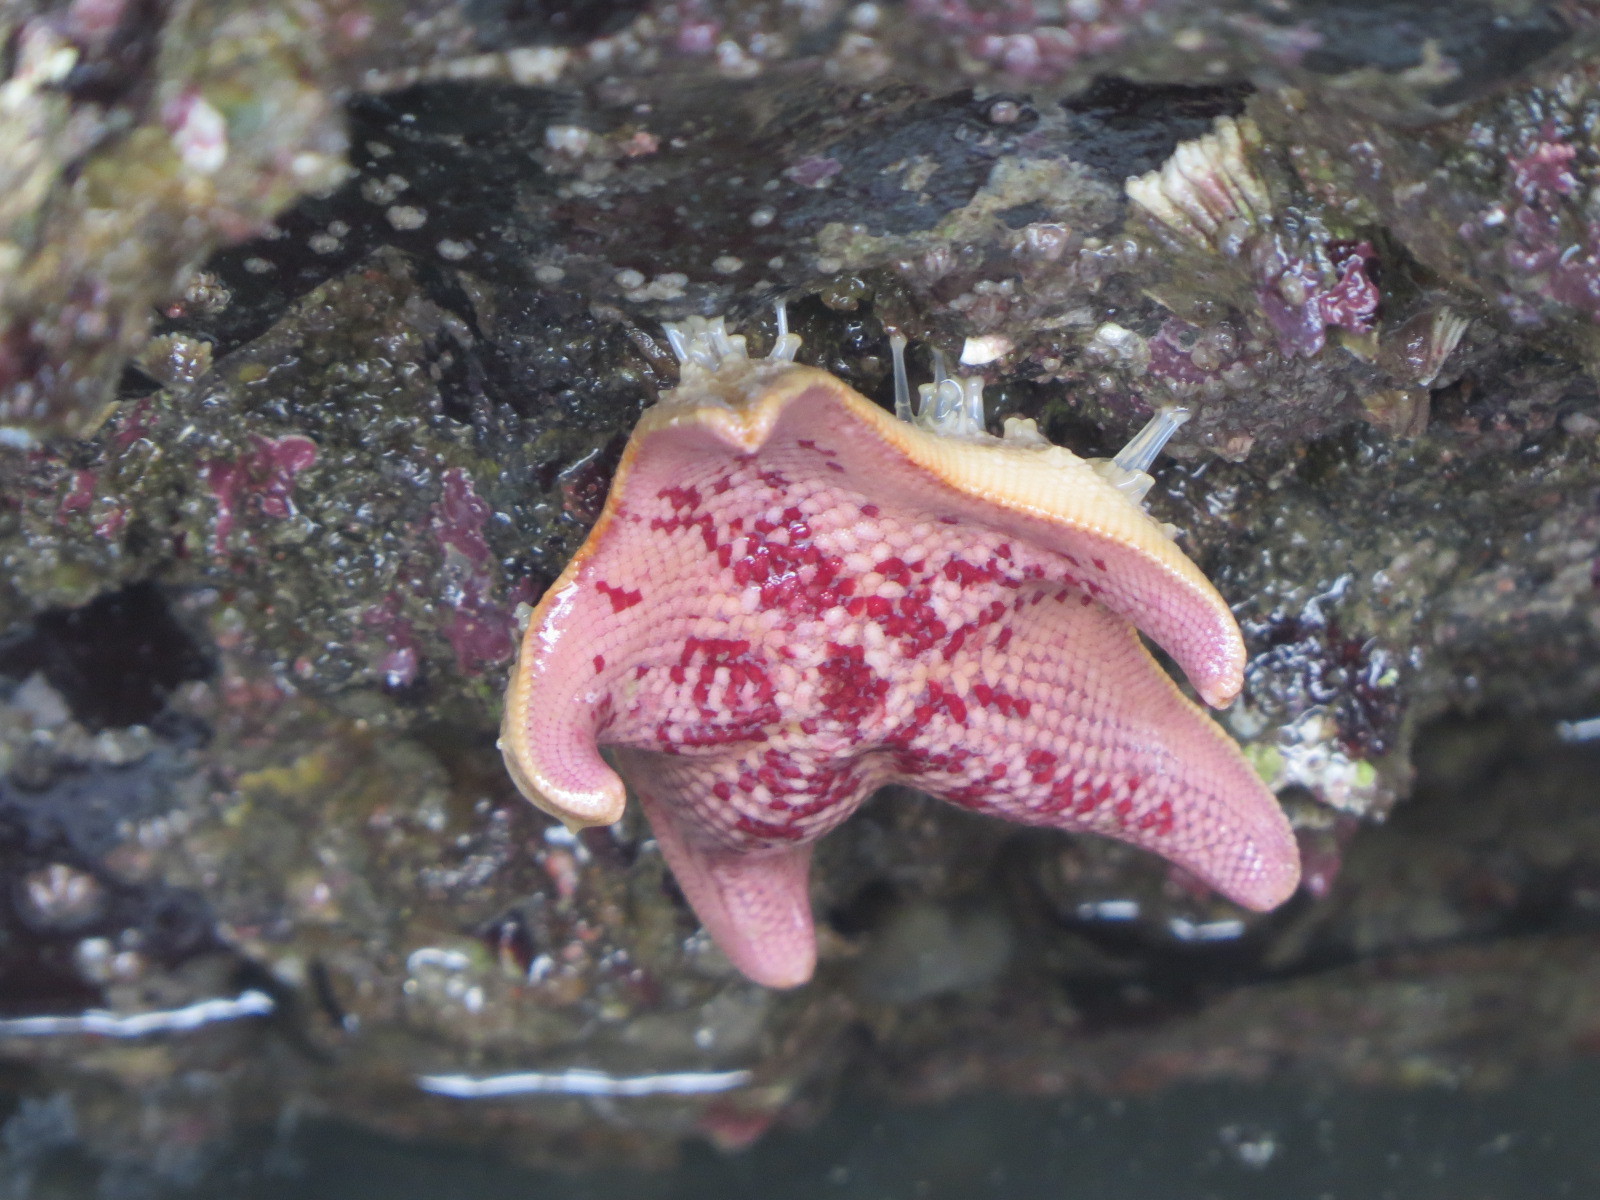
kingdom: Animalia
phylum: Echinodermata
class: Asteroidea
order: Valvatida
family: Asterinidae
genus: Patiria
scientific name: Patiria miniata
